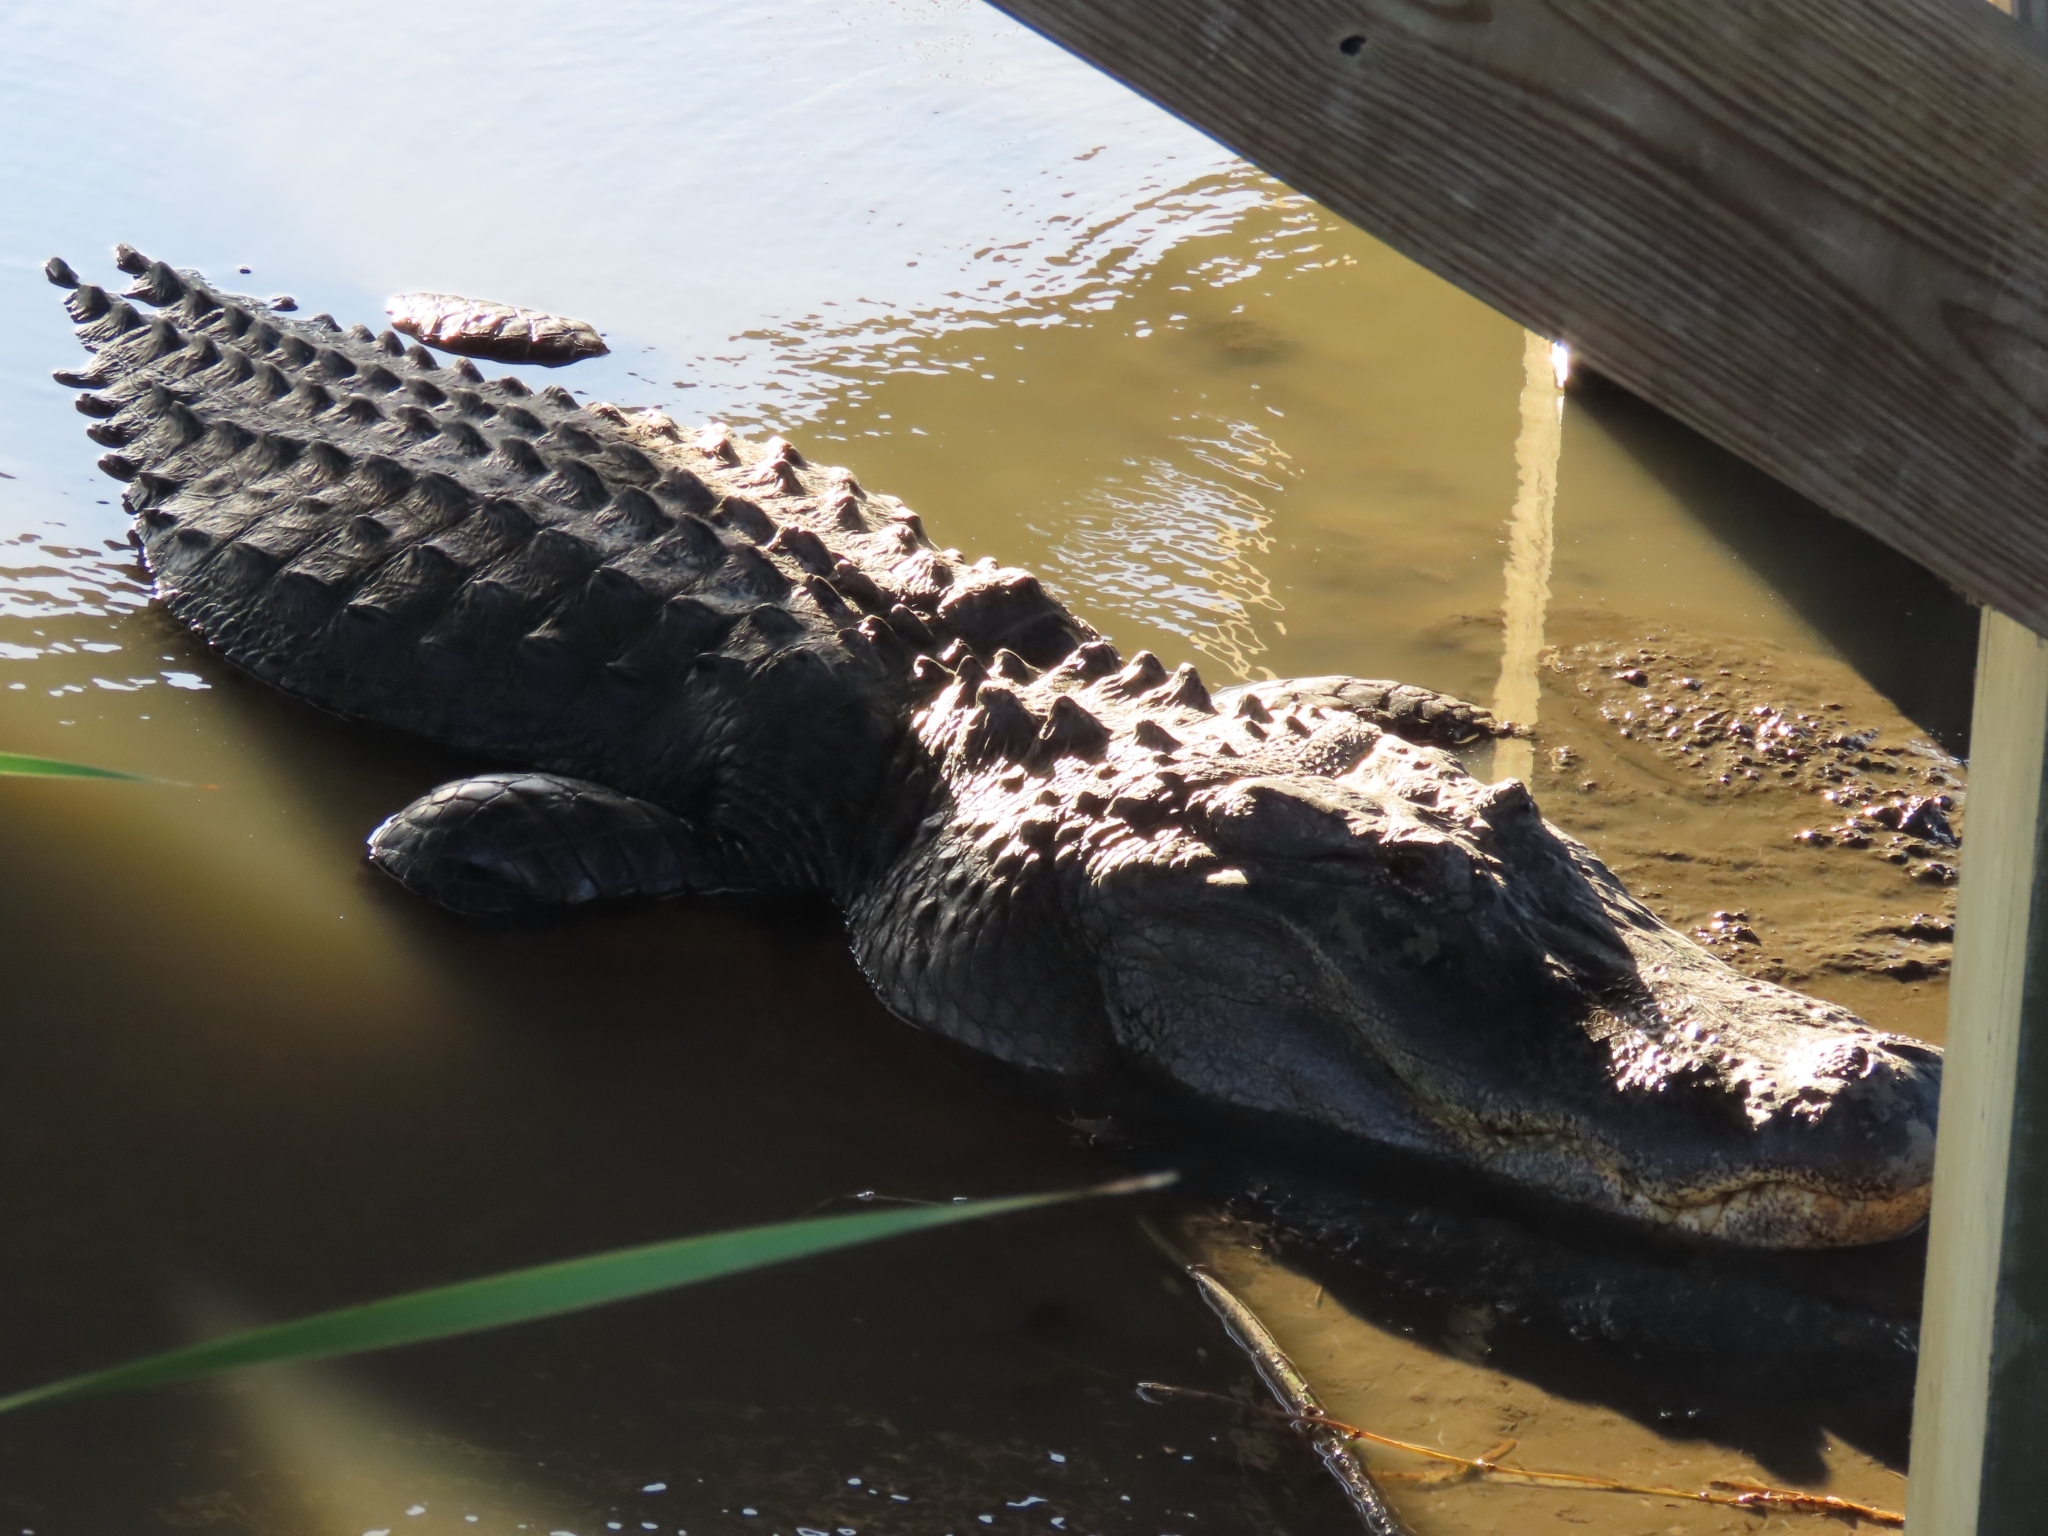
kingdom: Animalia
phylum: Chordata
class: Crocodylia
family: Alligatoridae
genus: Alligator
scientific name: Alligator mississippiensis
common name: American alligator
